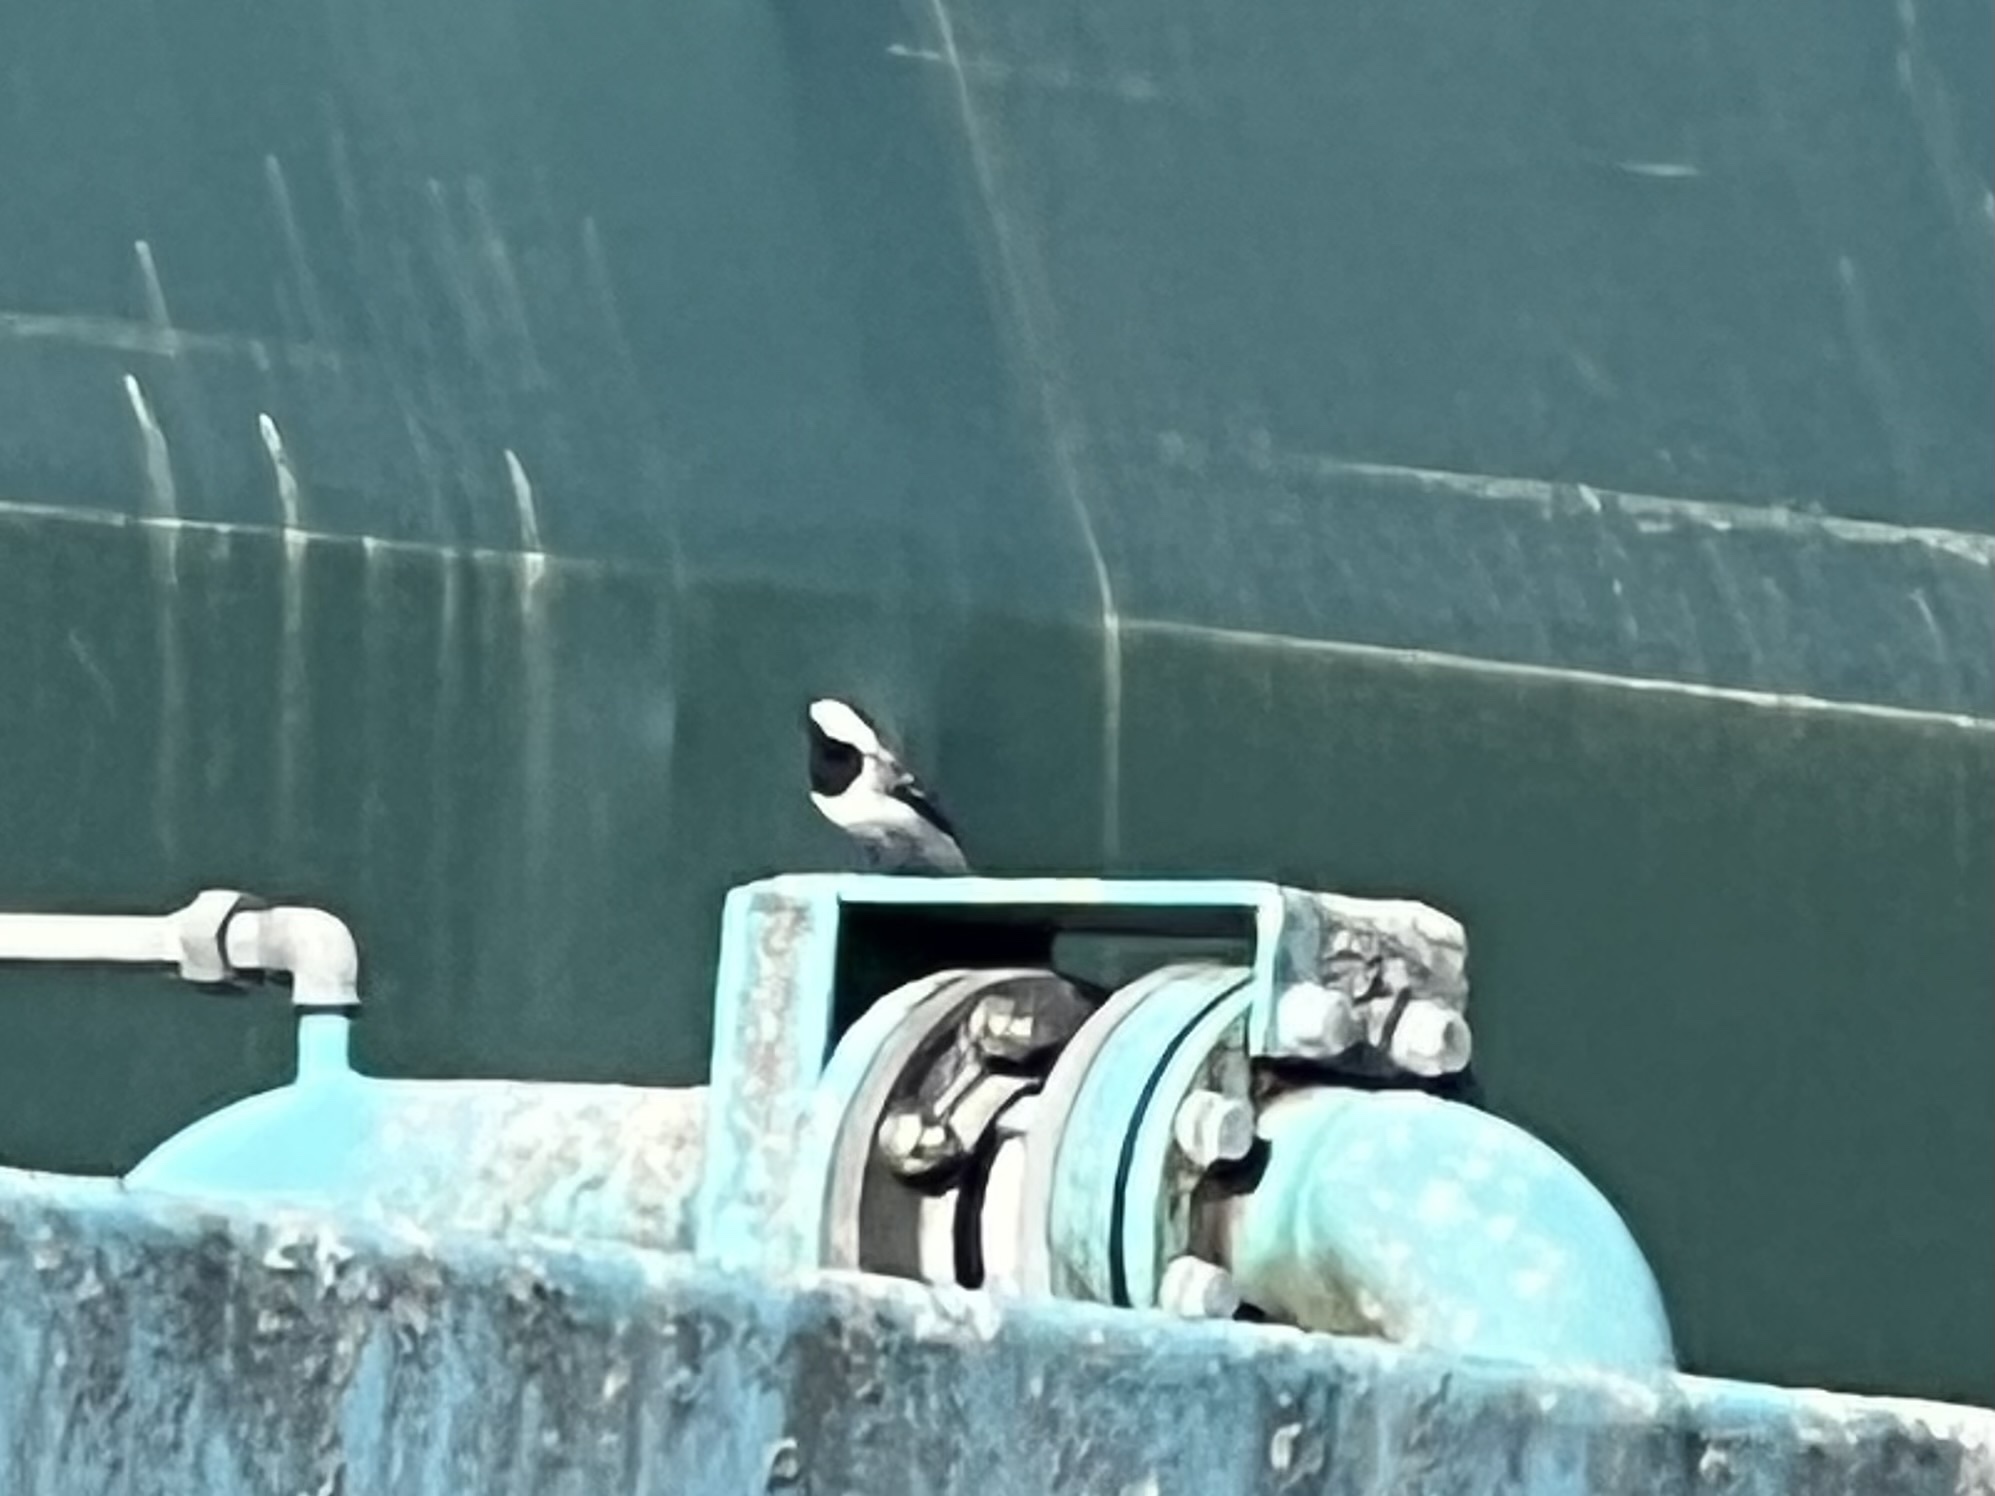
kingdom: Animalia
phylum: Chordata
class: Aves
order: Passeriformes
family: Motacillidae
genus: Motacilla
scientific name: Motacilla alba
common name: White wagtail
